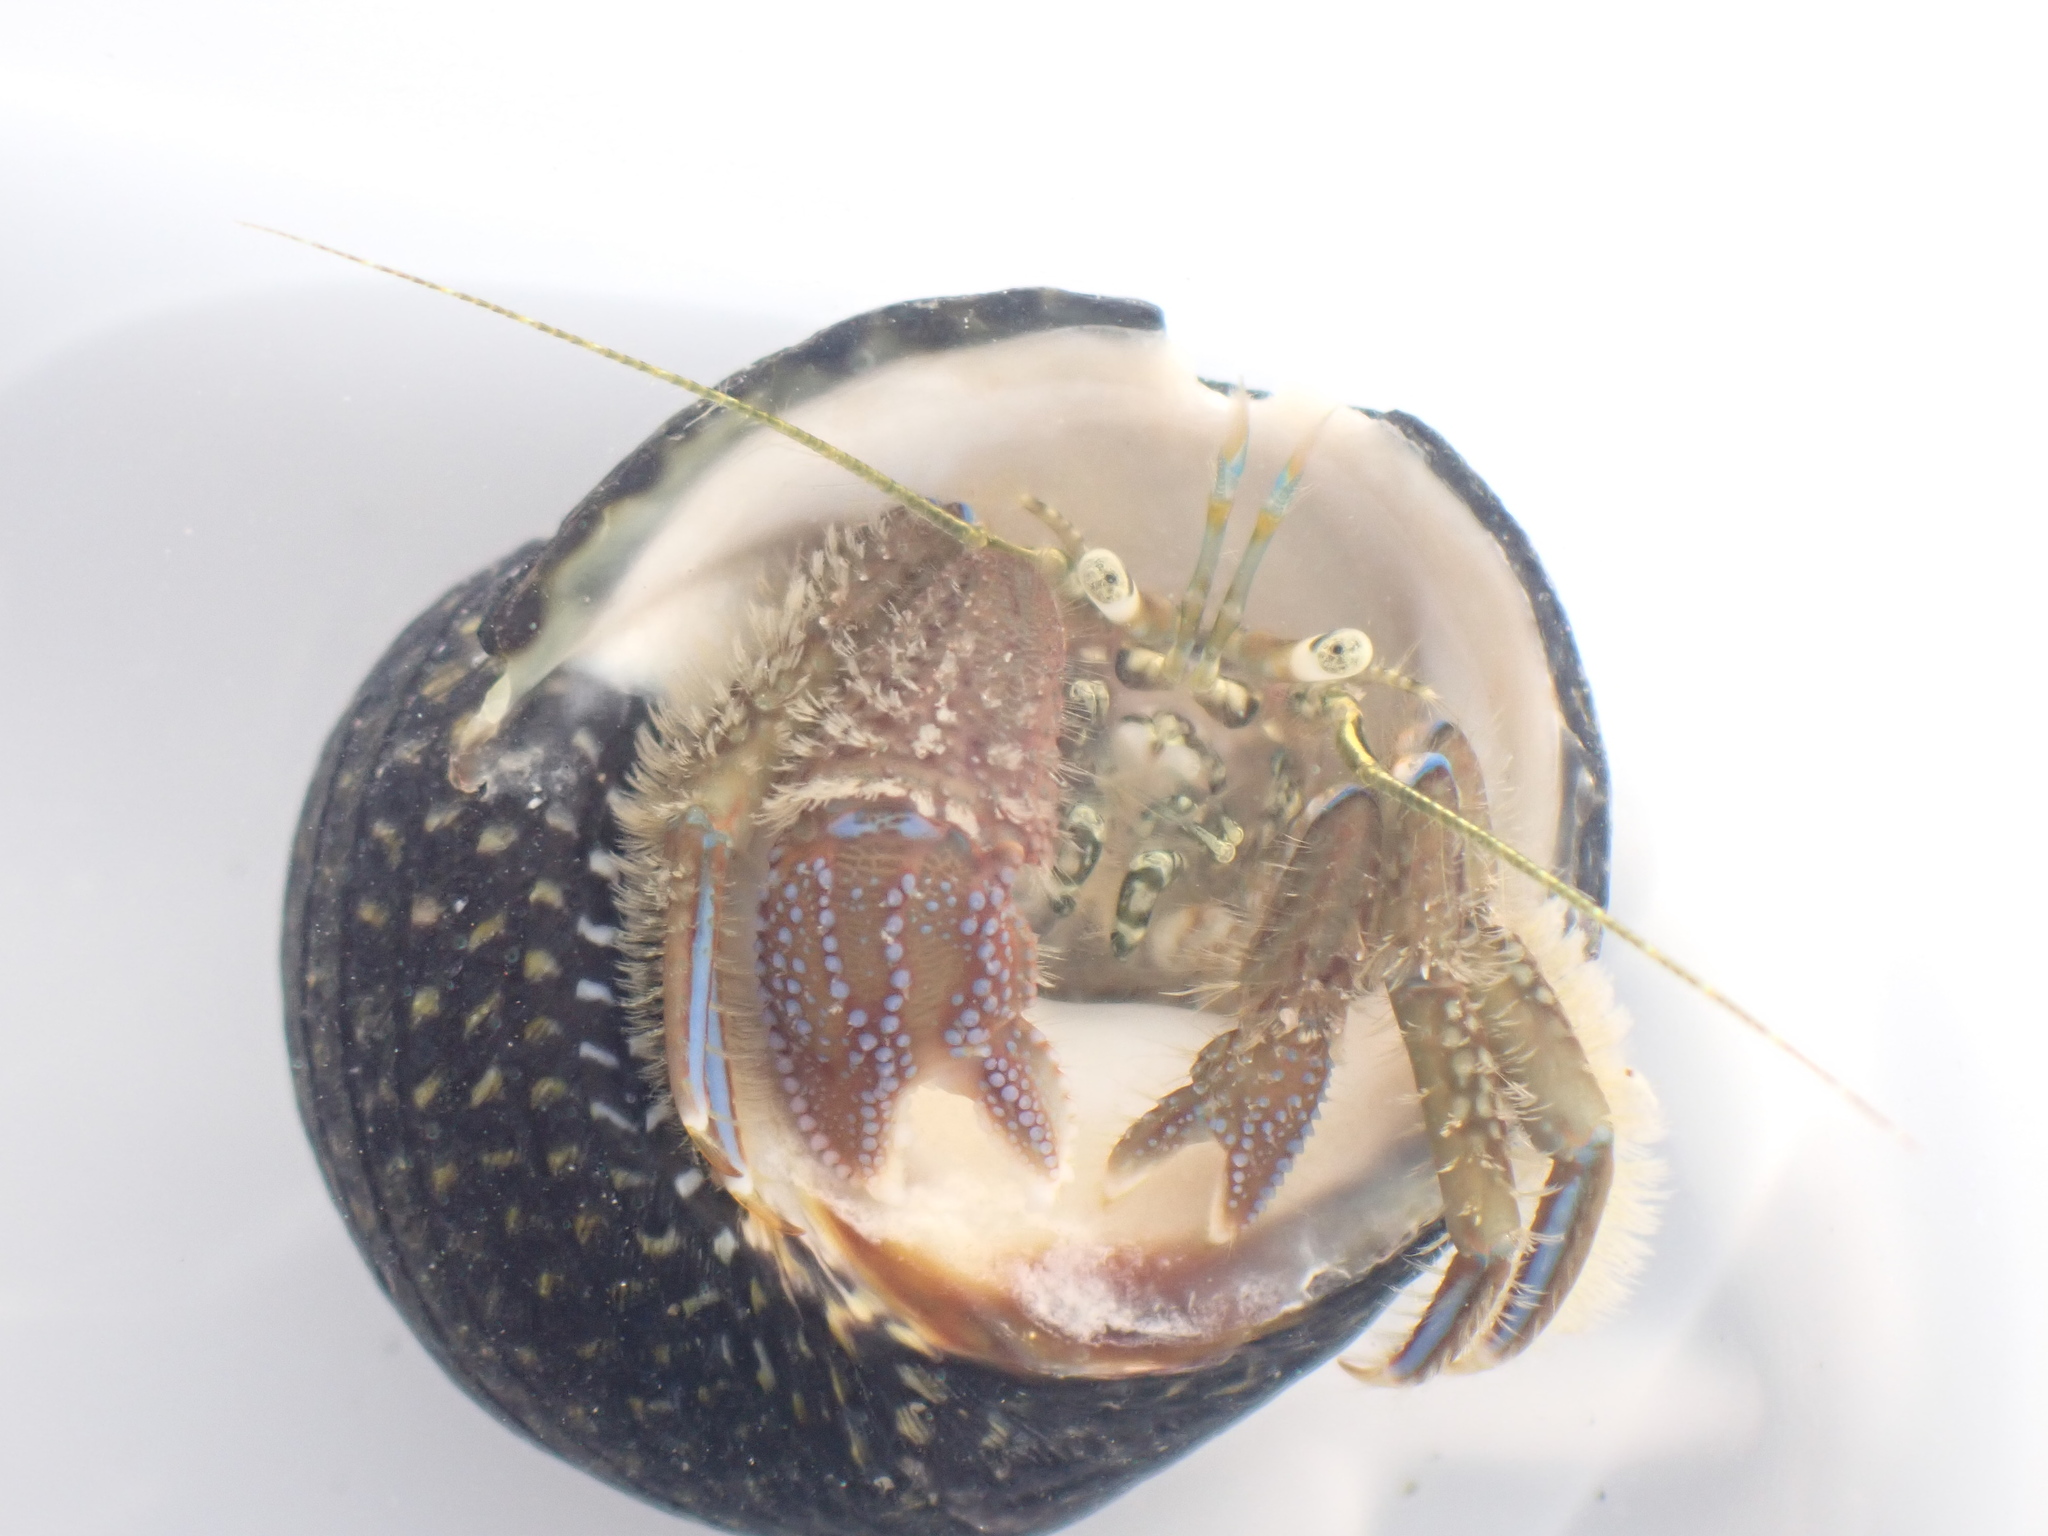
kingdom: Animalia
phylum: Arthropoda
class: Malacostraca
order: Decapoda
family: Paguridae
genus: Pagurus
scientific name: Pagurus novizealandiae
